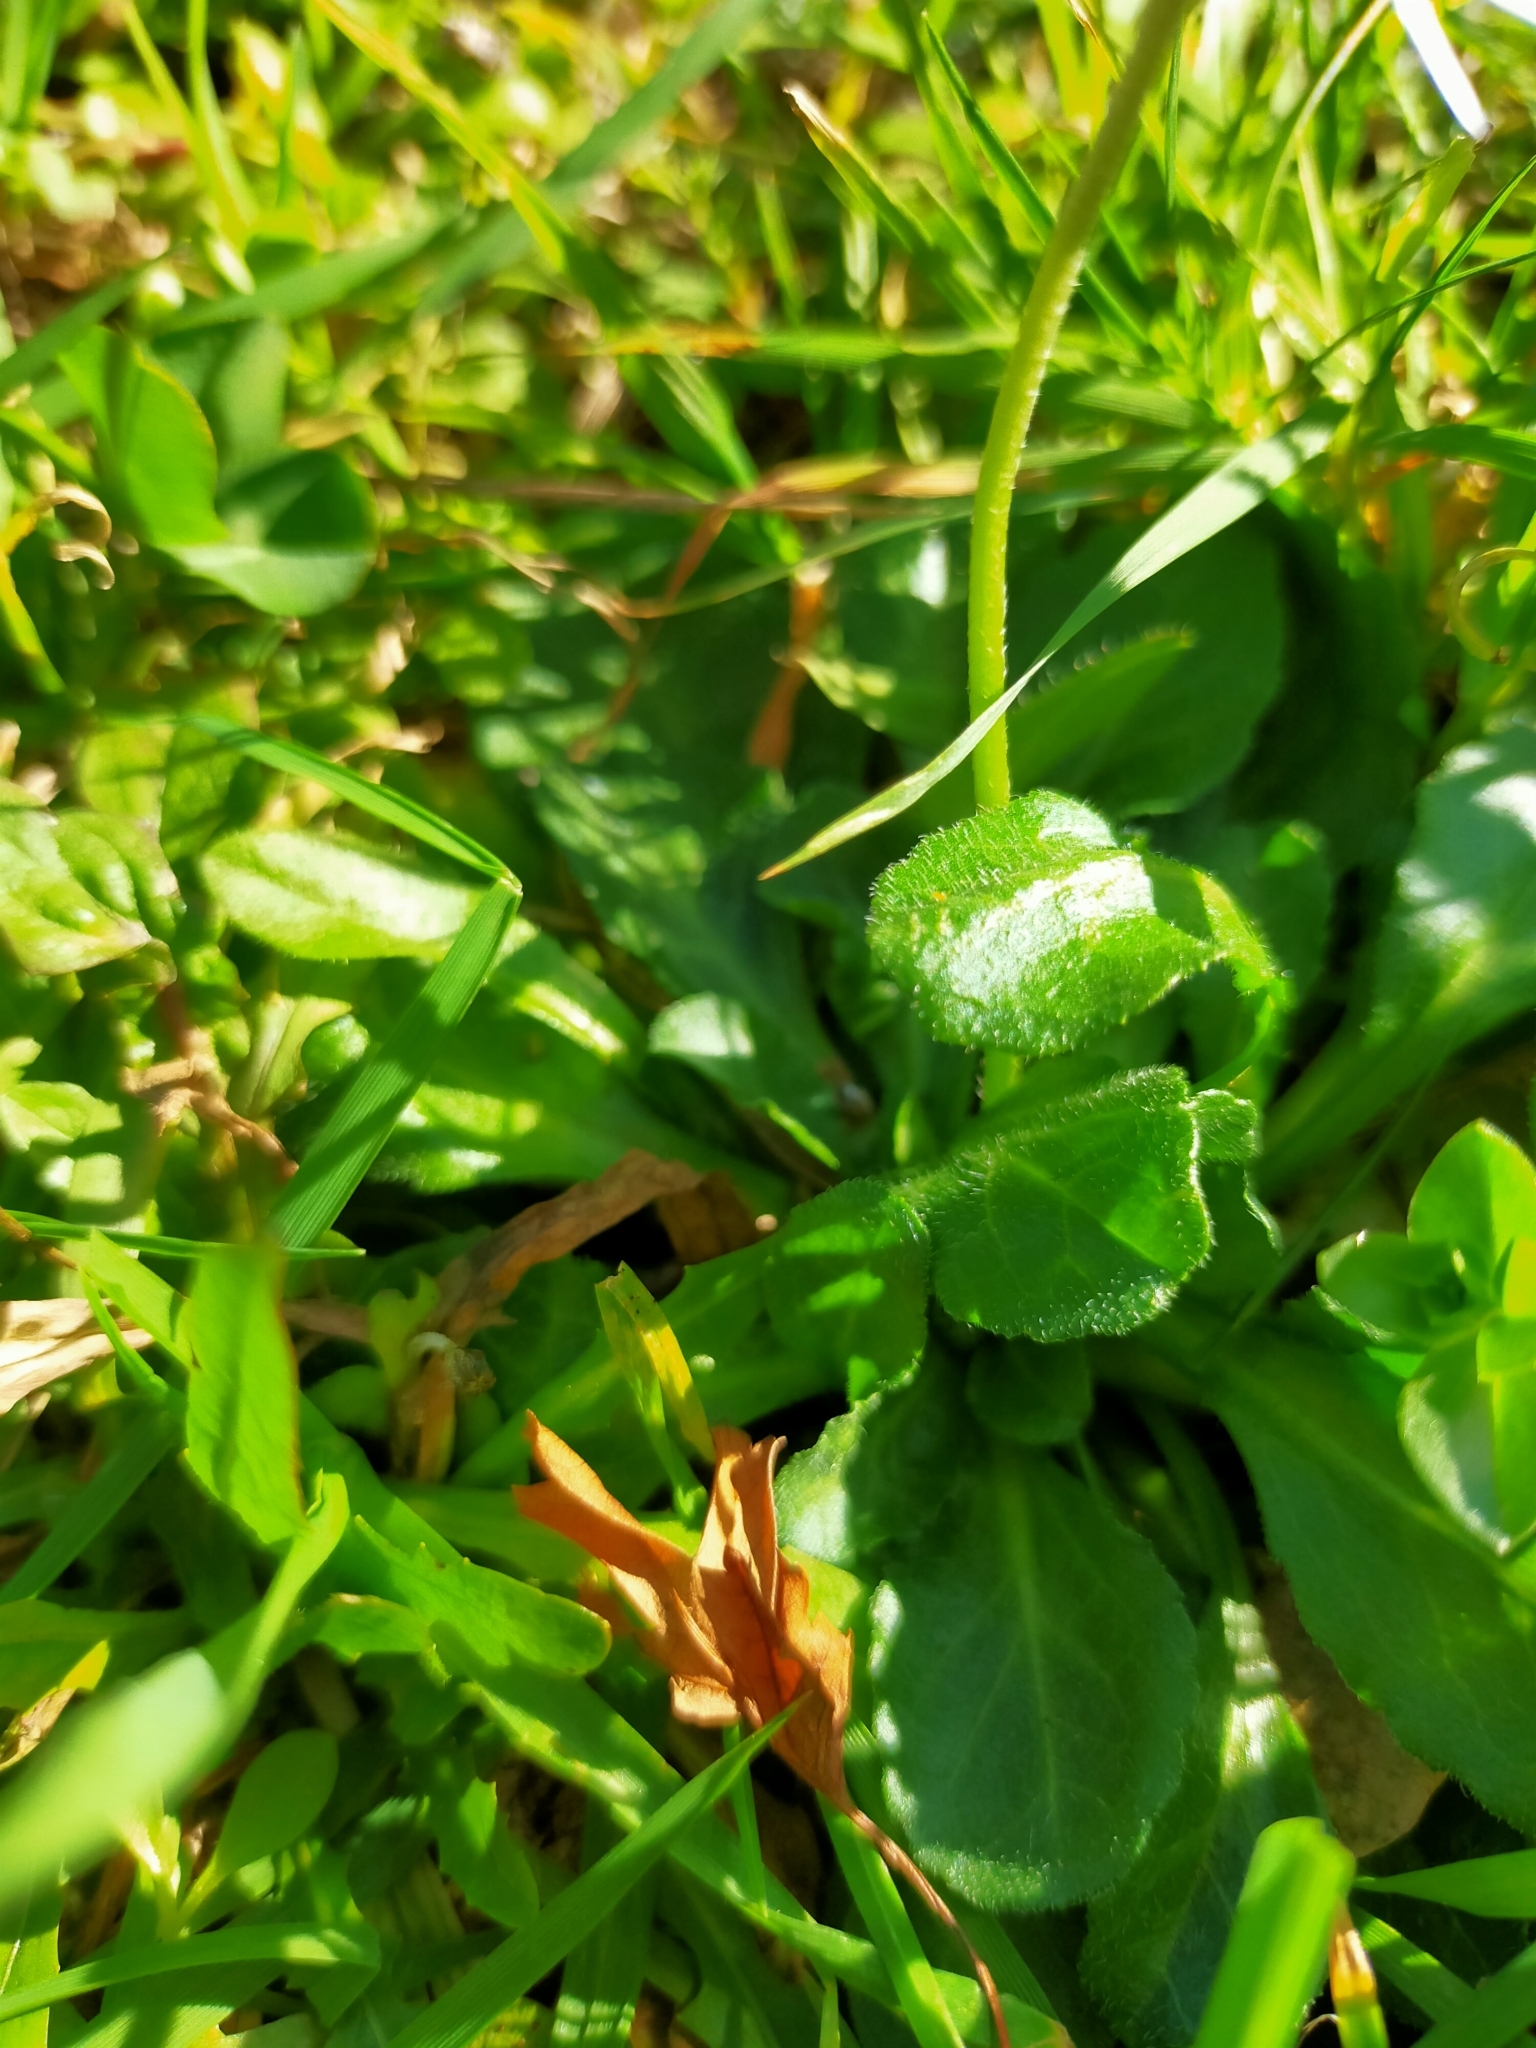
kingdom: Plantae
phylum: Tracheophyta
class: Magnoliopsida
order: Asterales
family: Asteraceae
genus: Bellis
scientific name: Bellis perennis
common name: Lawndaisy
